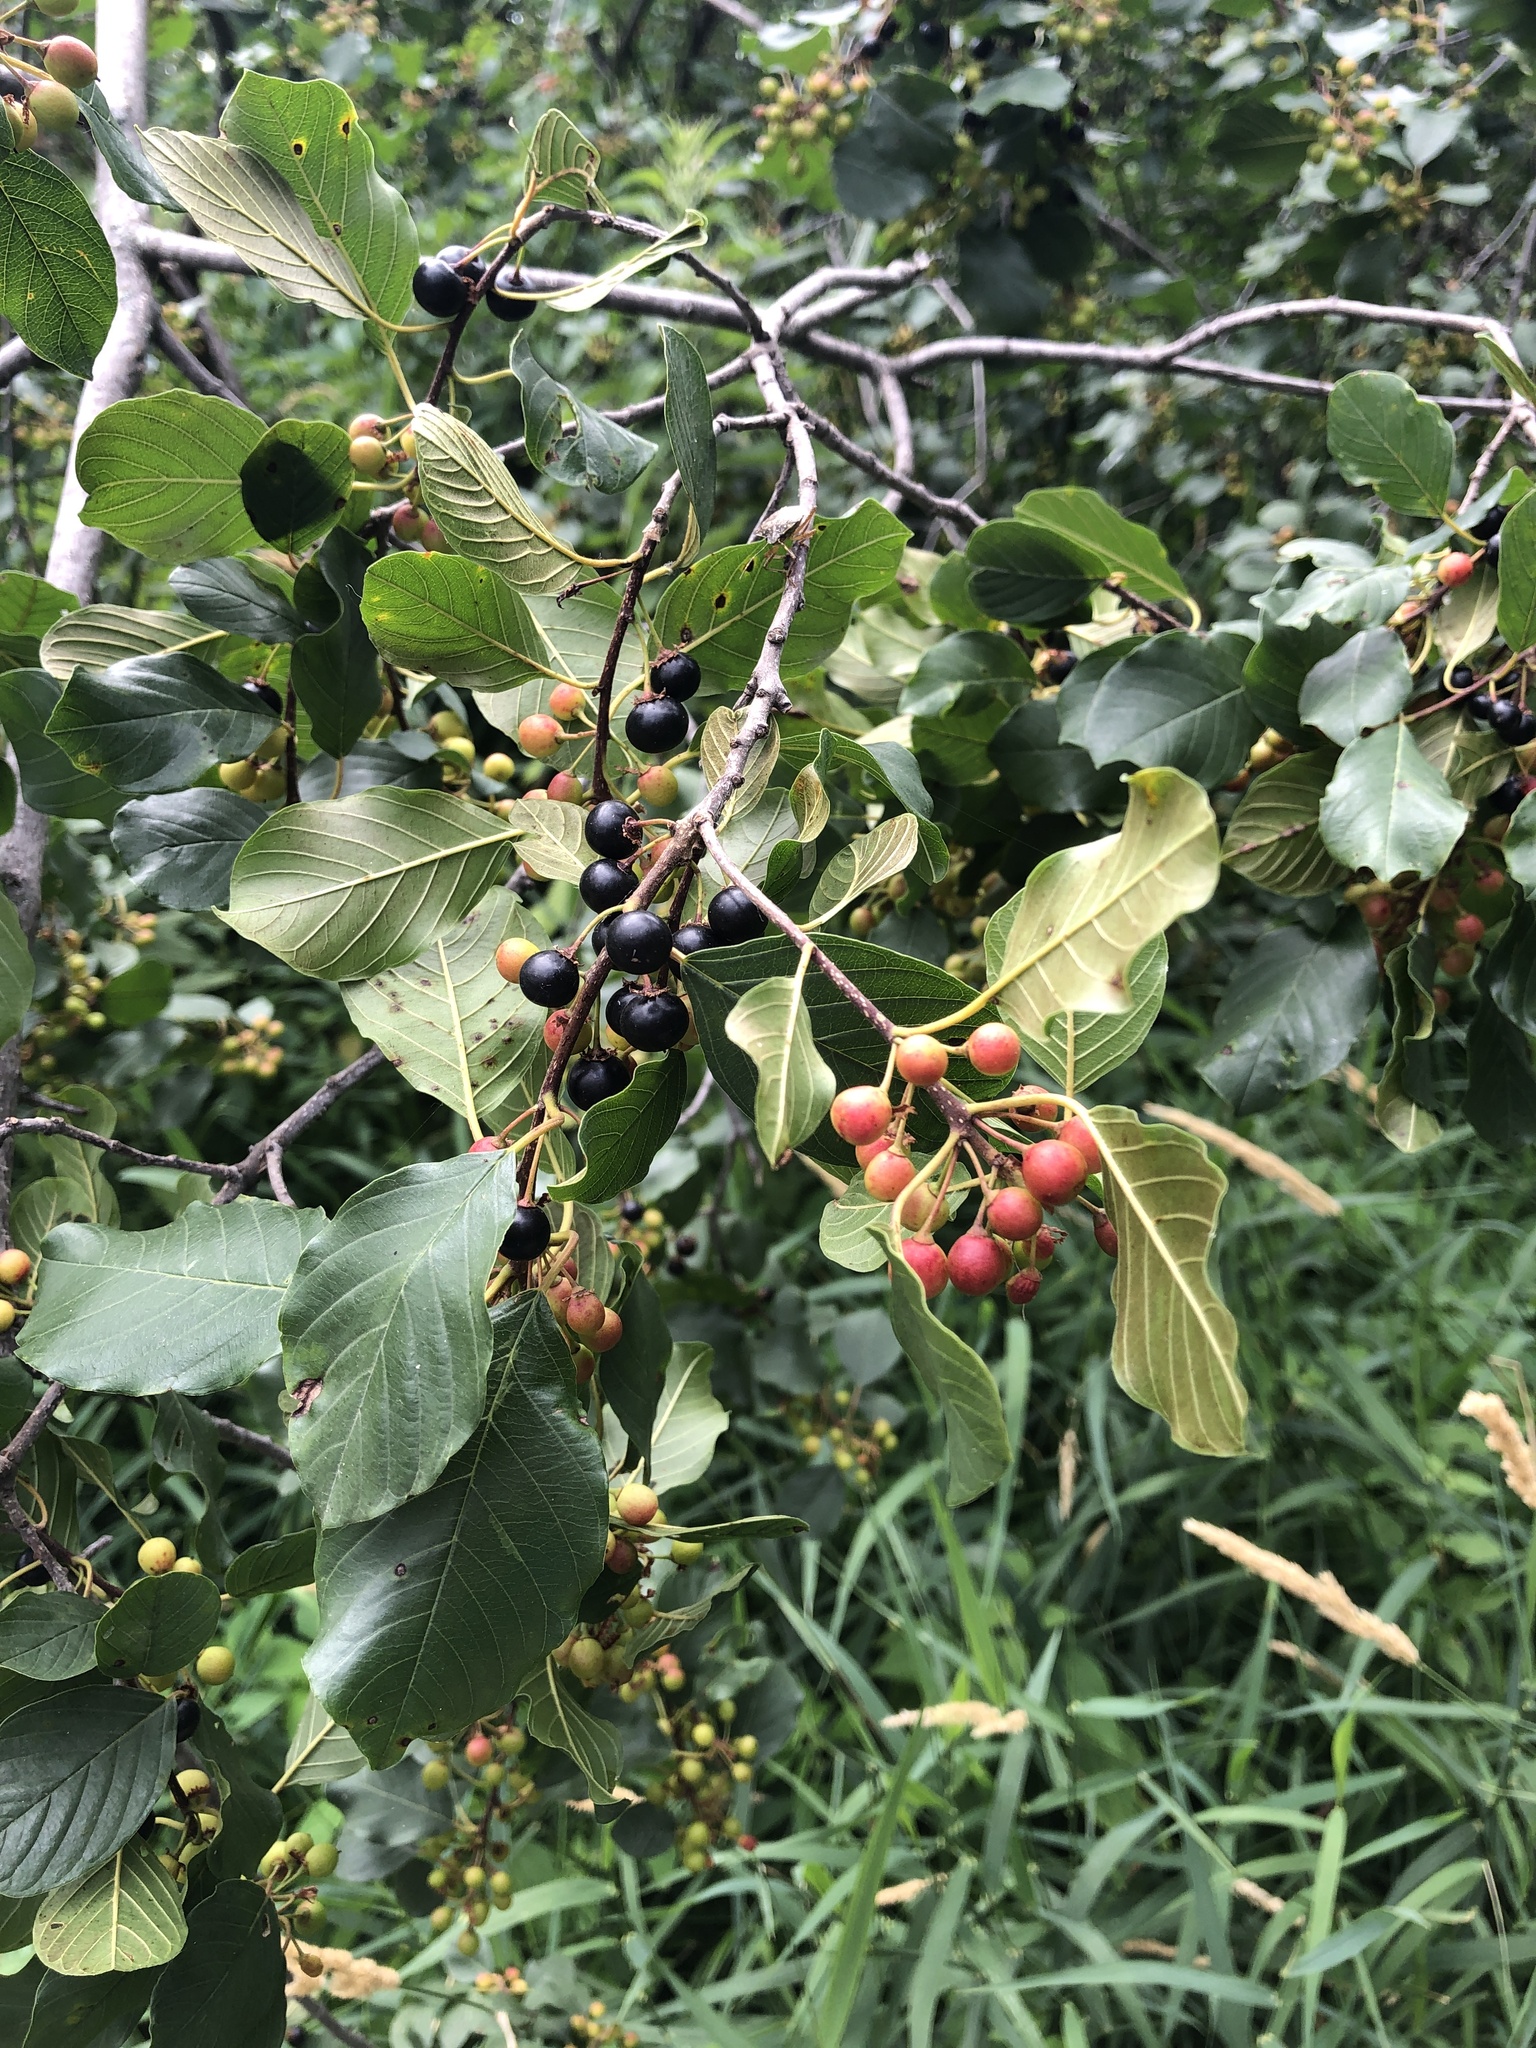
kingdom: Plantae
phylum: Tracheophyta
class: Magnoliopsida
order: Rosales
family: Rhamnaceae
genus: Frangula
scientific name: Frangula alnus
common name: Alder buckthorn
